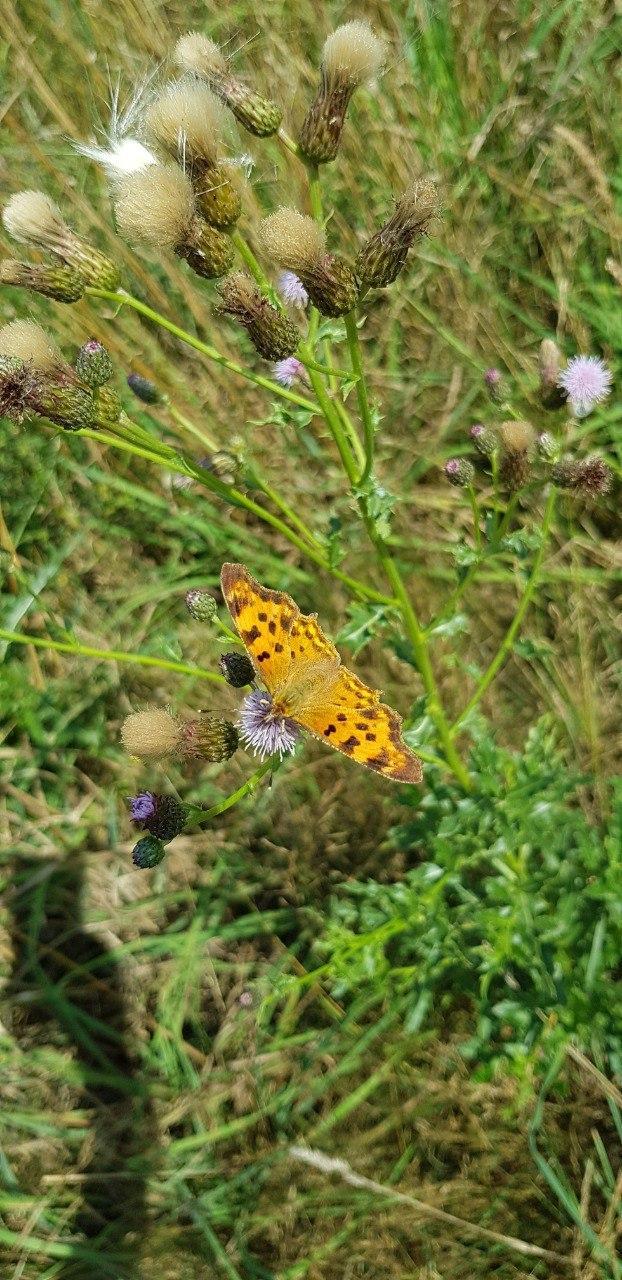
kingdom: Animalia
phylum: Arthropoda
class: Insecta
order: Lepidoptera
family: Nymphalidae
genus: Polygonia
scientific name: Polygonia c-album
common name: Comma
